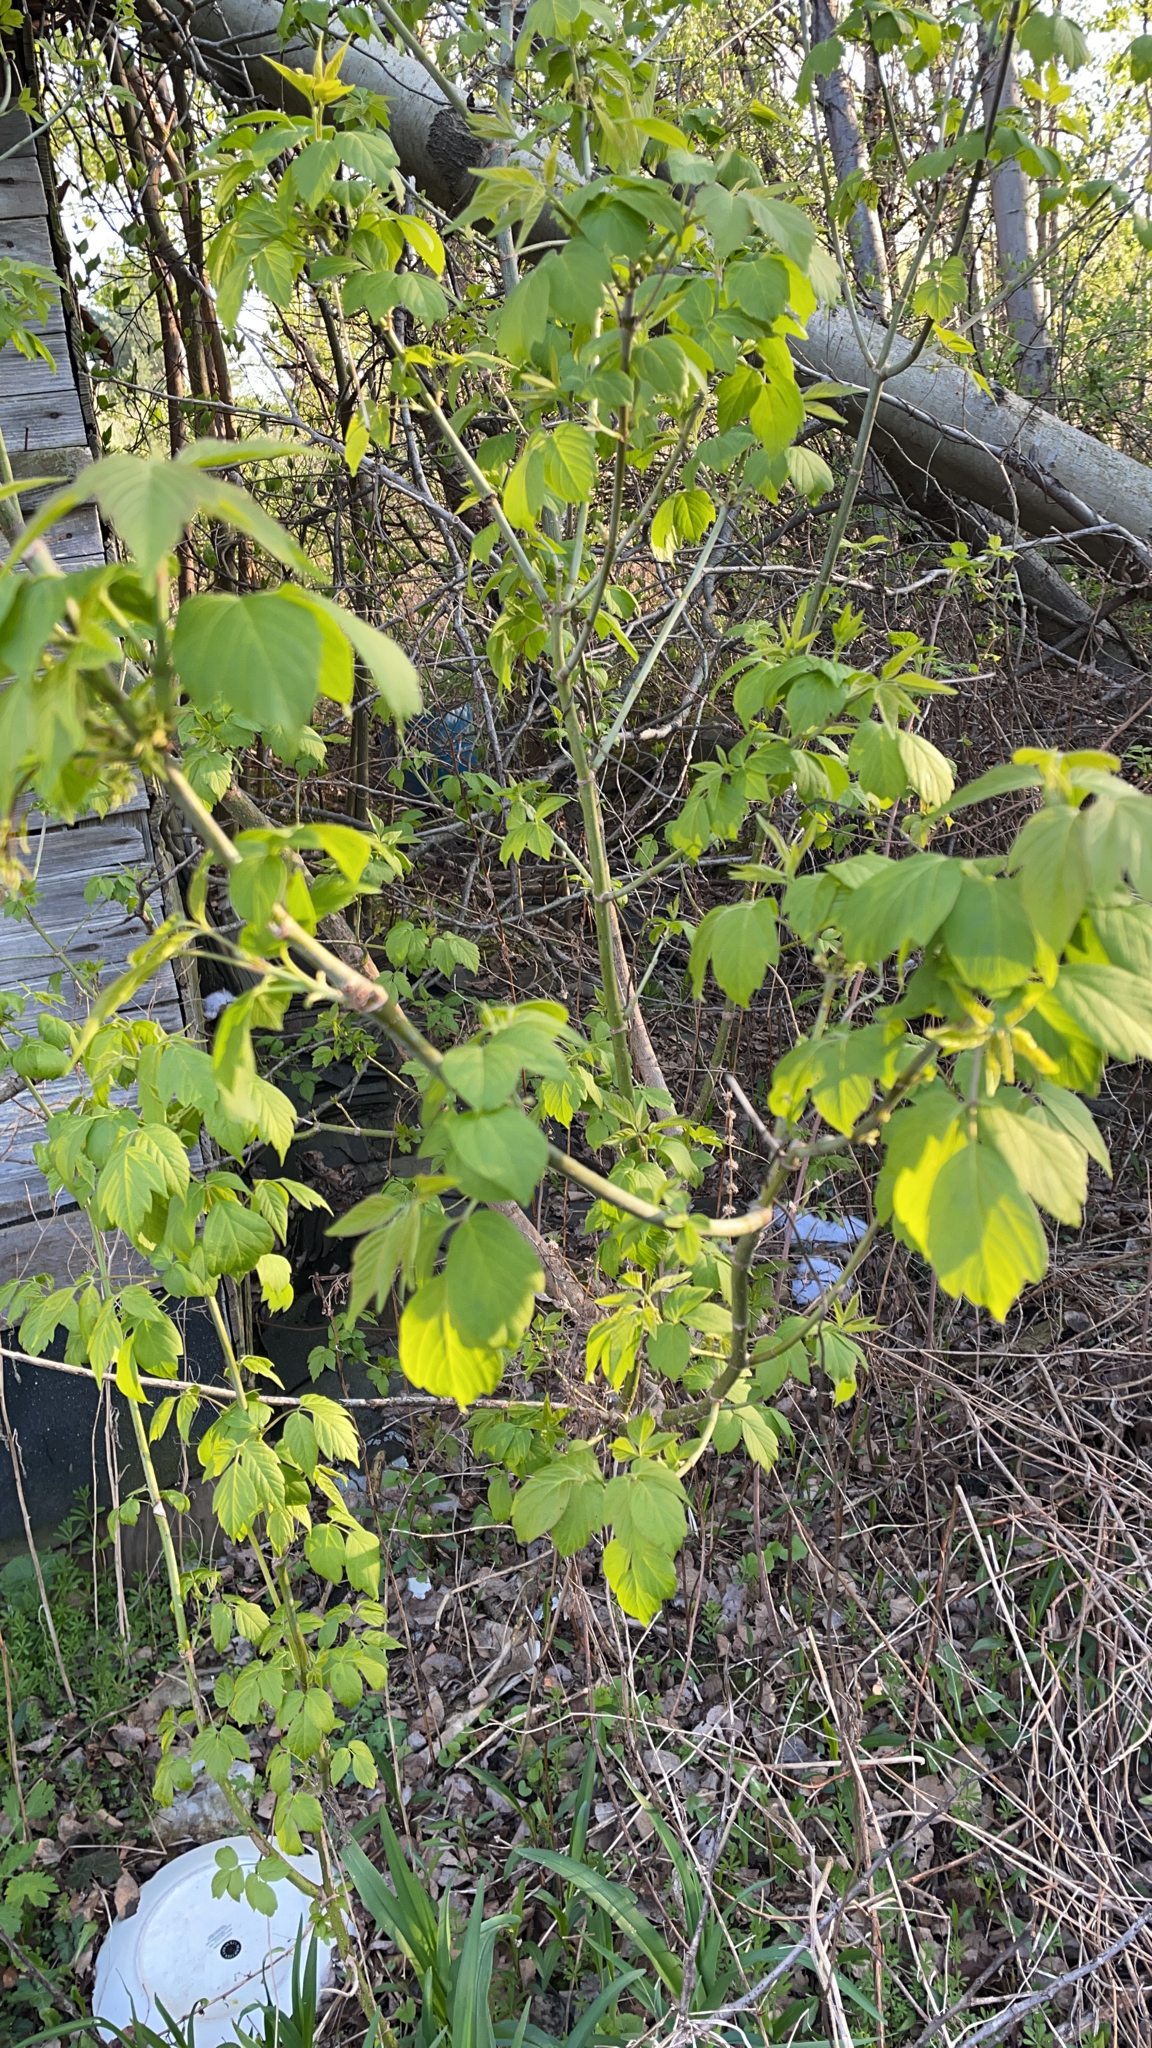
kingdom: Plantae
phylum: Tracheophyta
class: Magnoliopsida
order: Sapindales
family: Sapindaceae
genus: Acer
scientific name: Acer negundo
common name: Ashleaf maple
